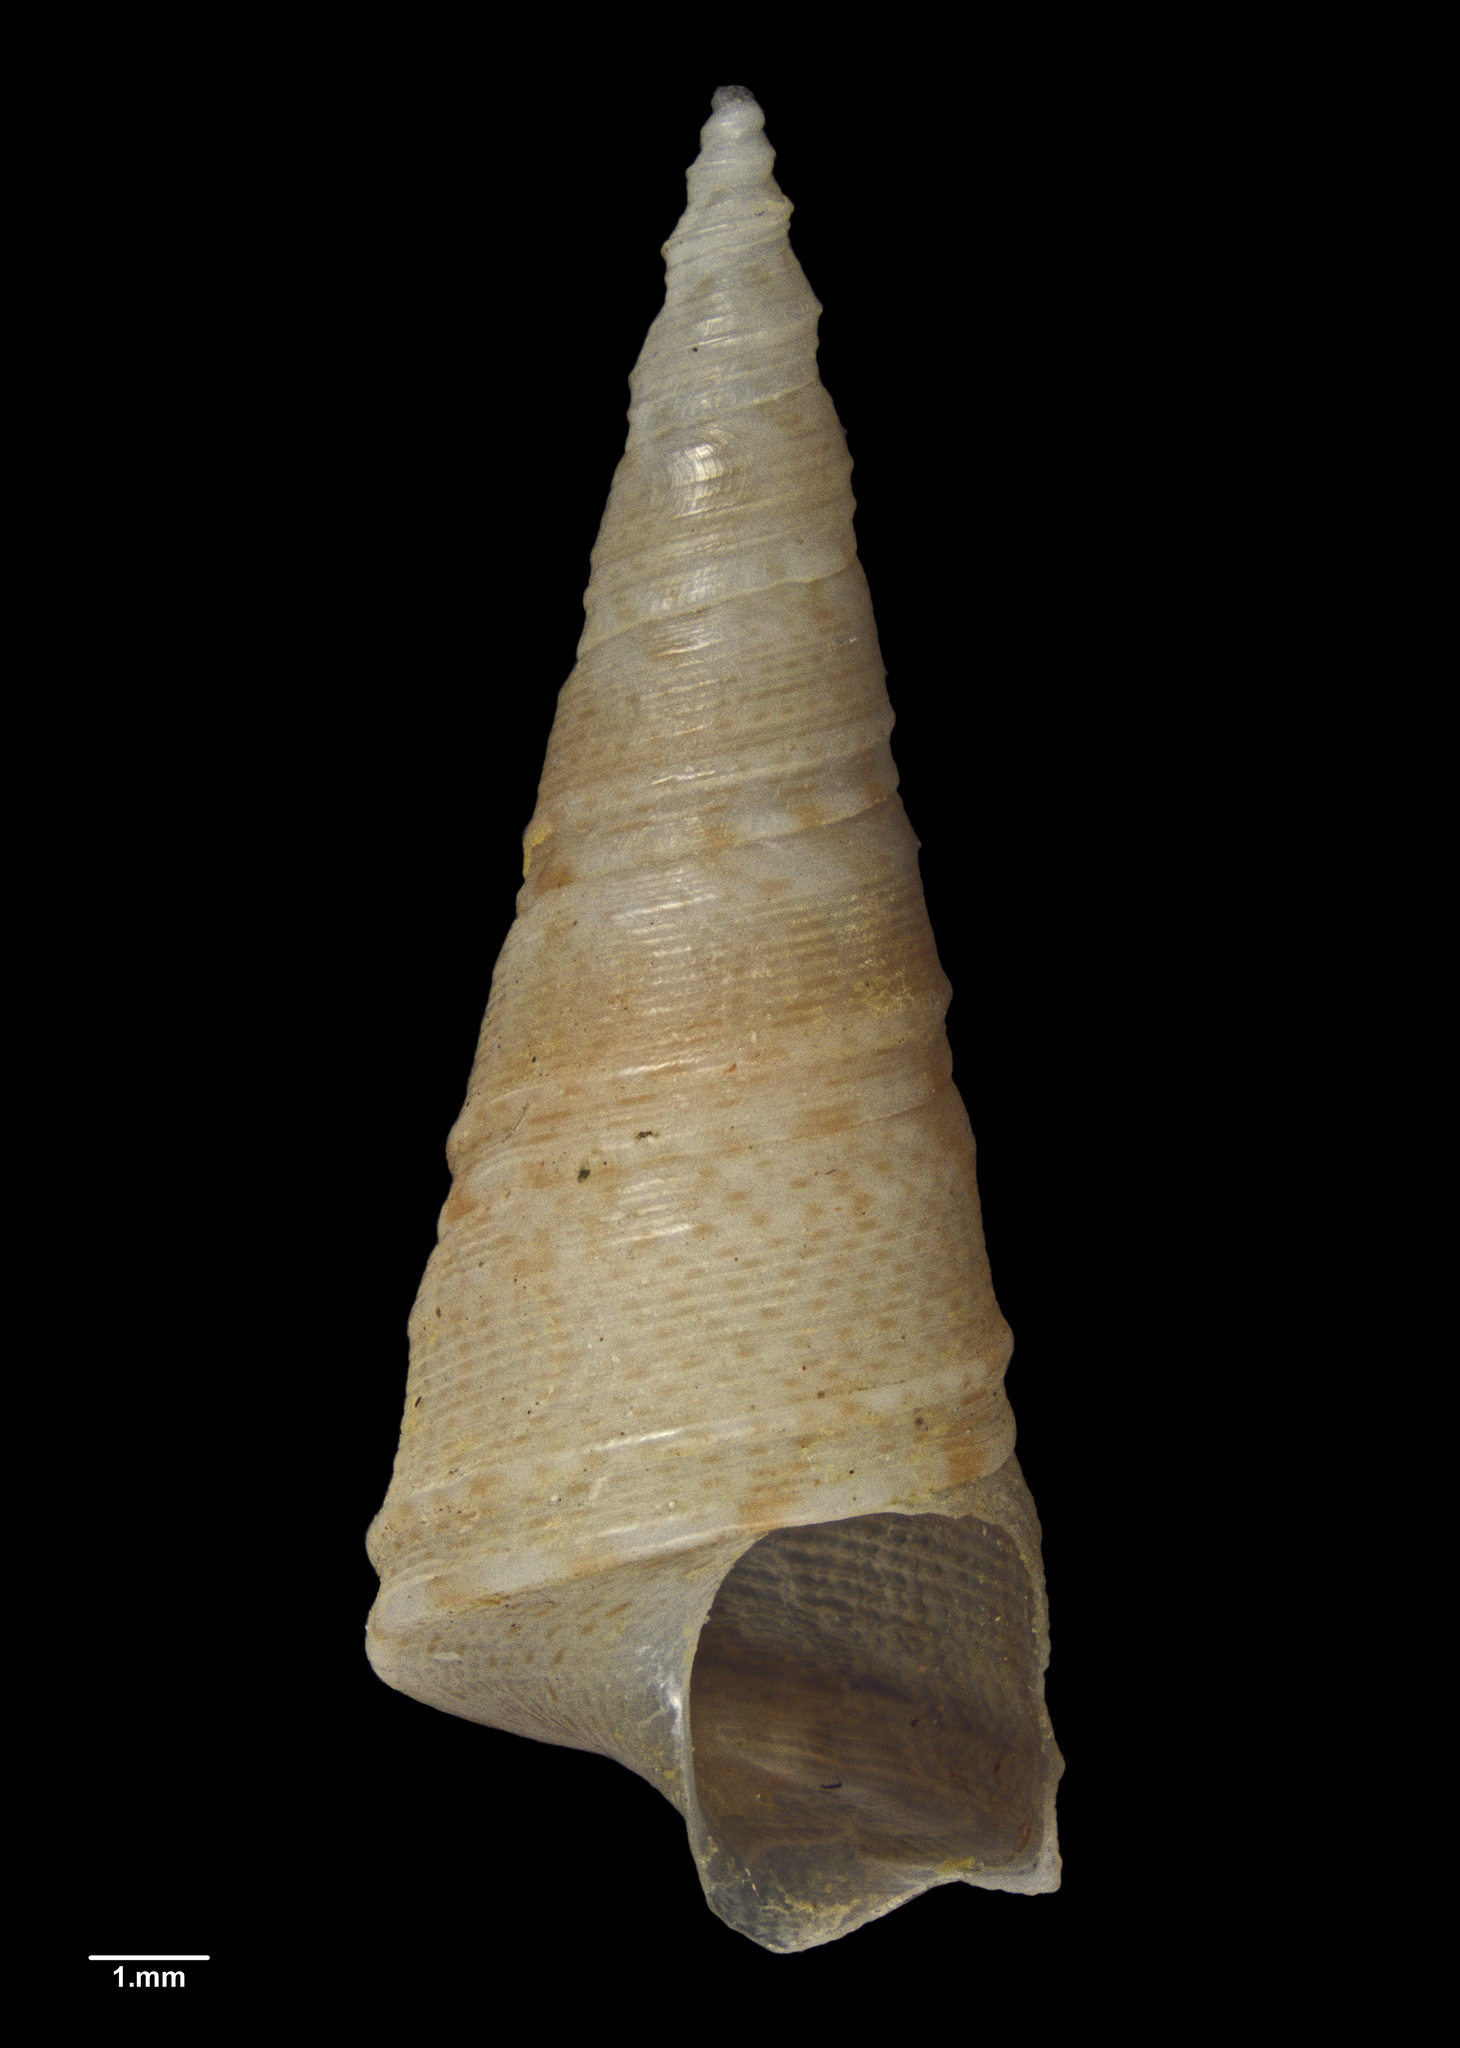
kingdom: Animalia
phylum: Mollusca
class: Gastropoda
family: Turritellidae
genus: Maoricolpus
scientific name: Maoricolpus finlayi
